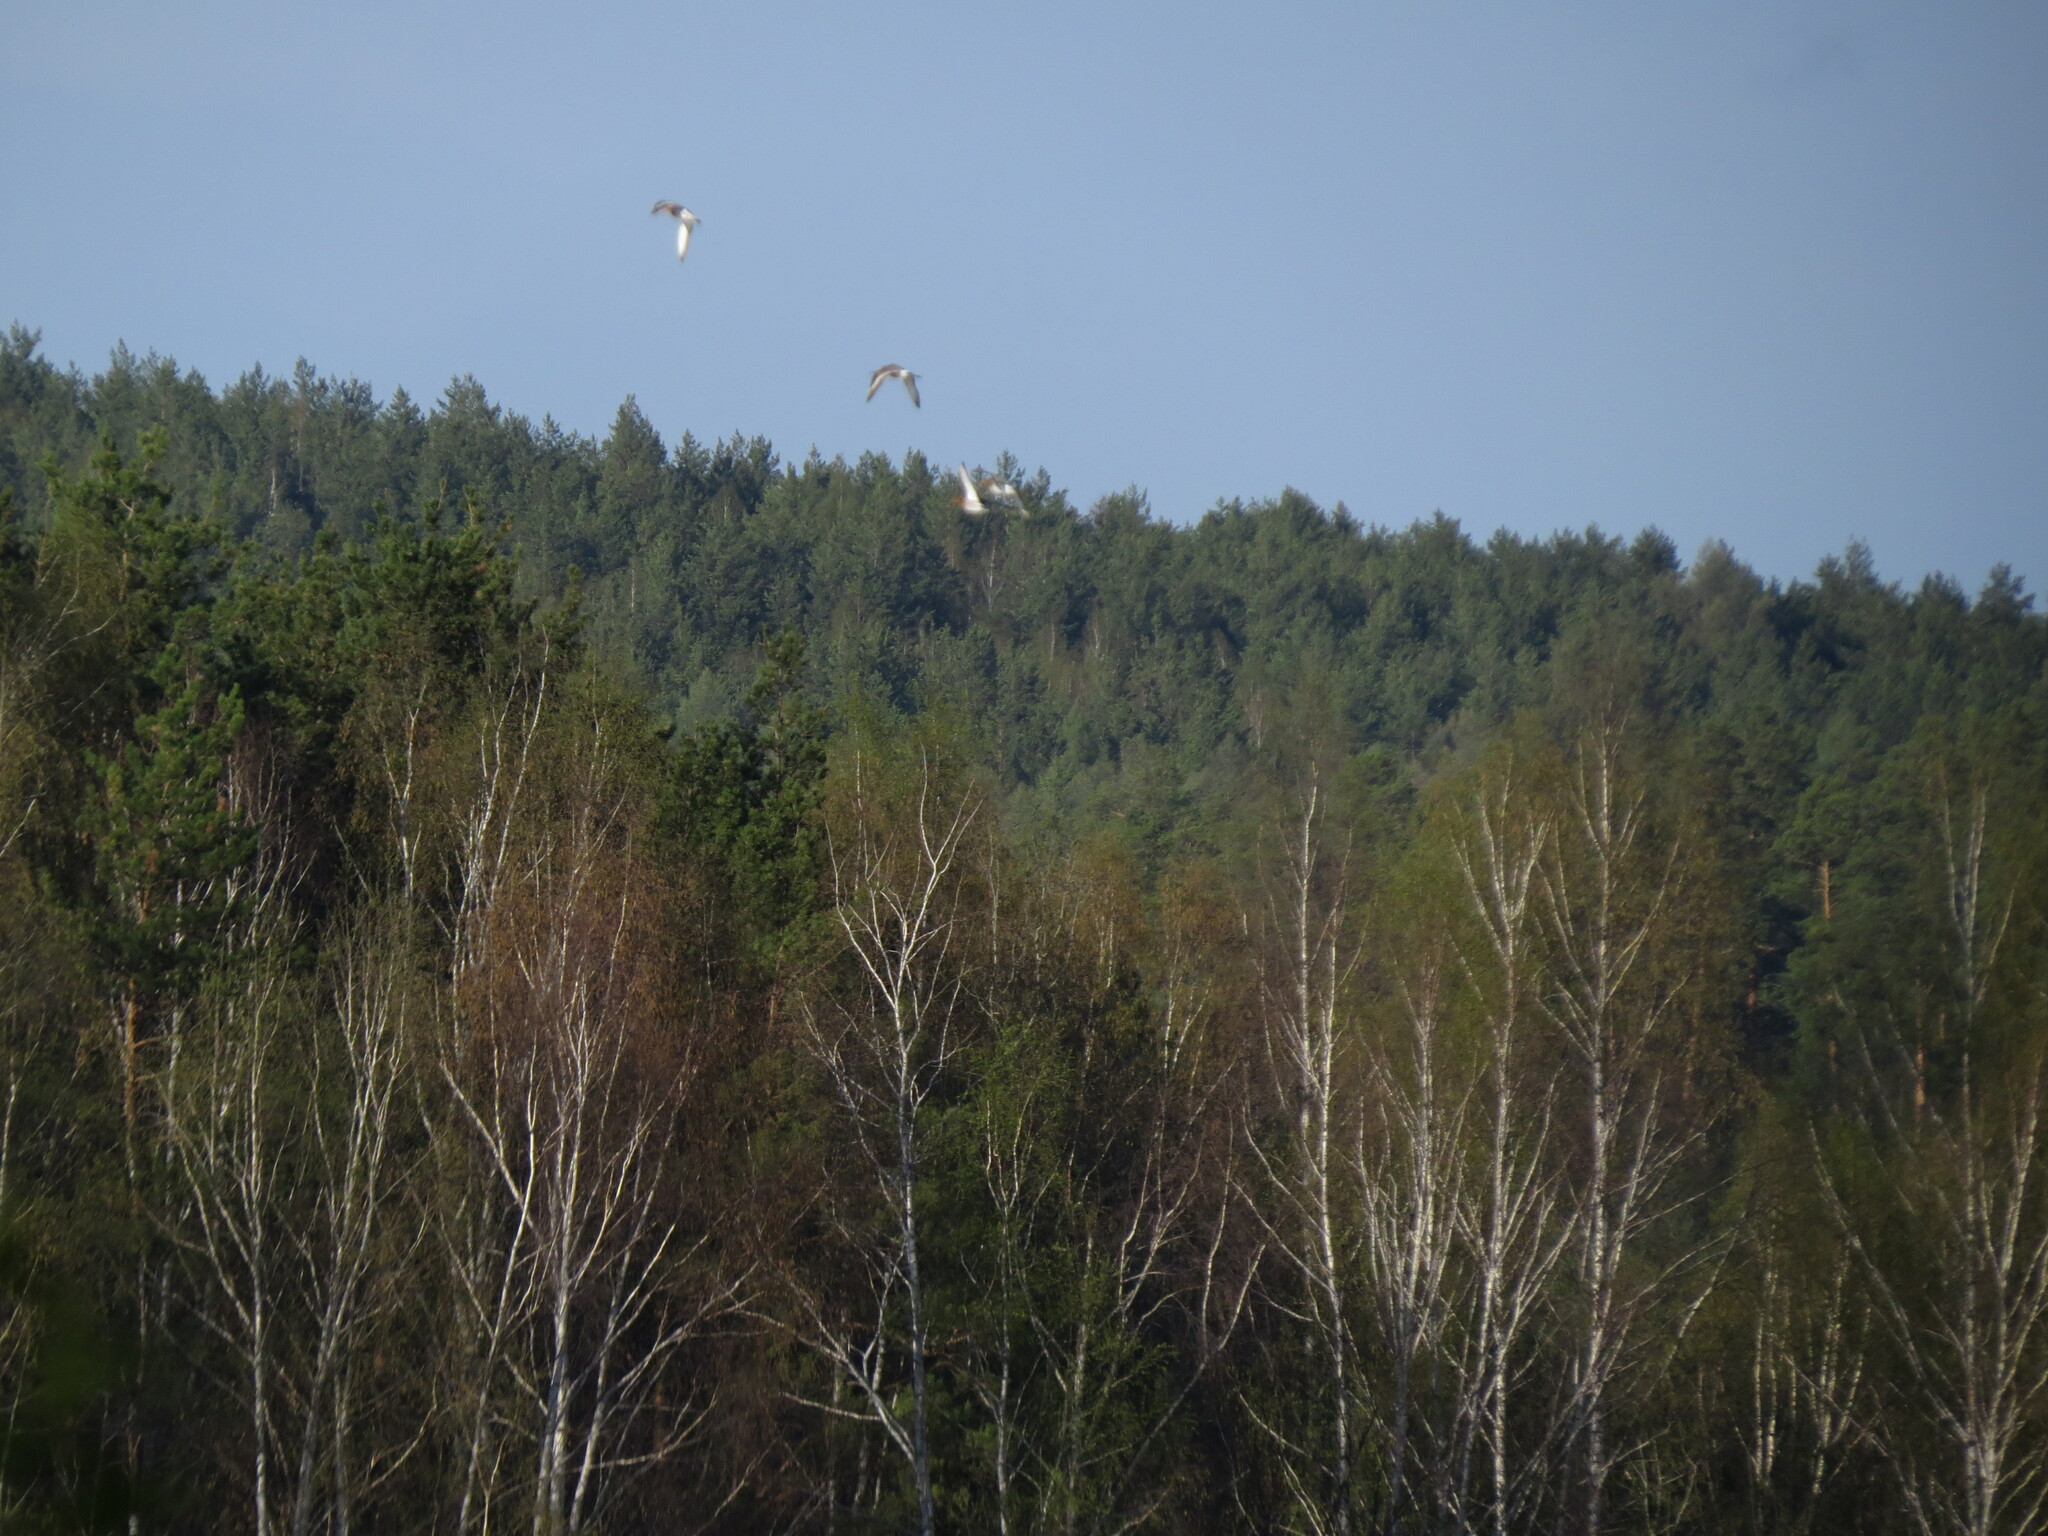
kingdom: Animalia
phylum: Chordata
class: Aves
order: Charadriiformes
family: Scolopacidae
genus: Limosa
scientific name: Limosa limosa
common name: Black-tailed godwit
